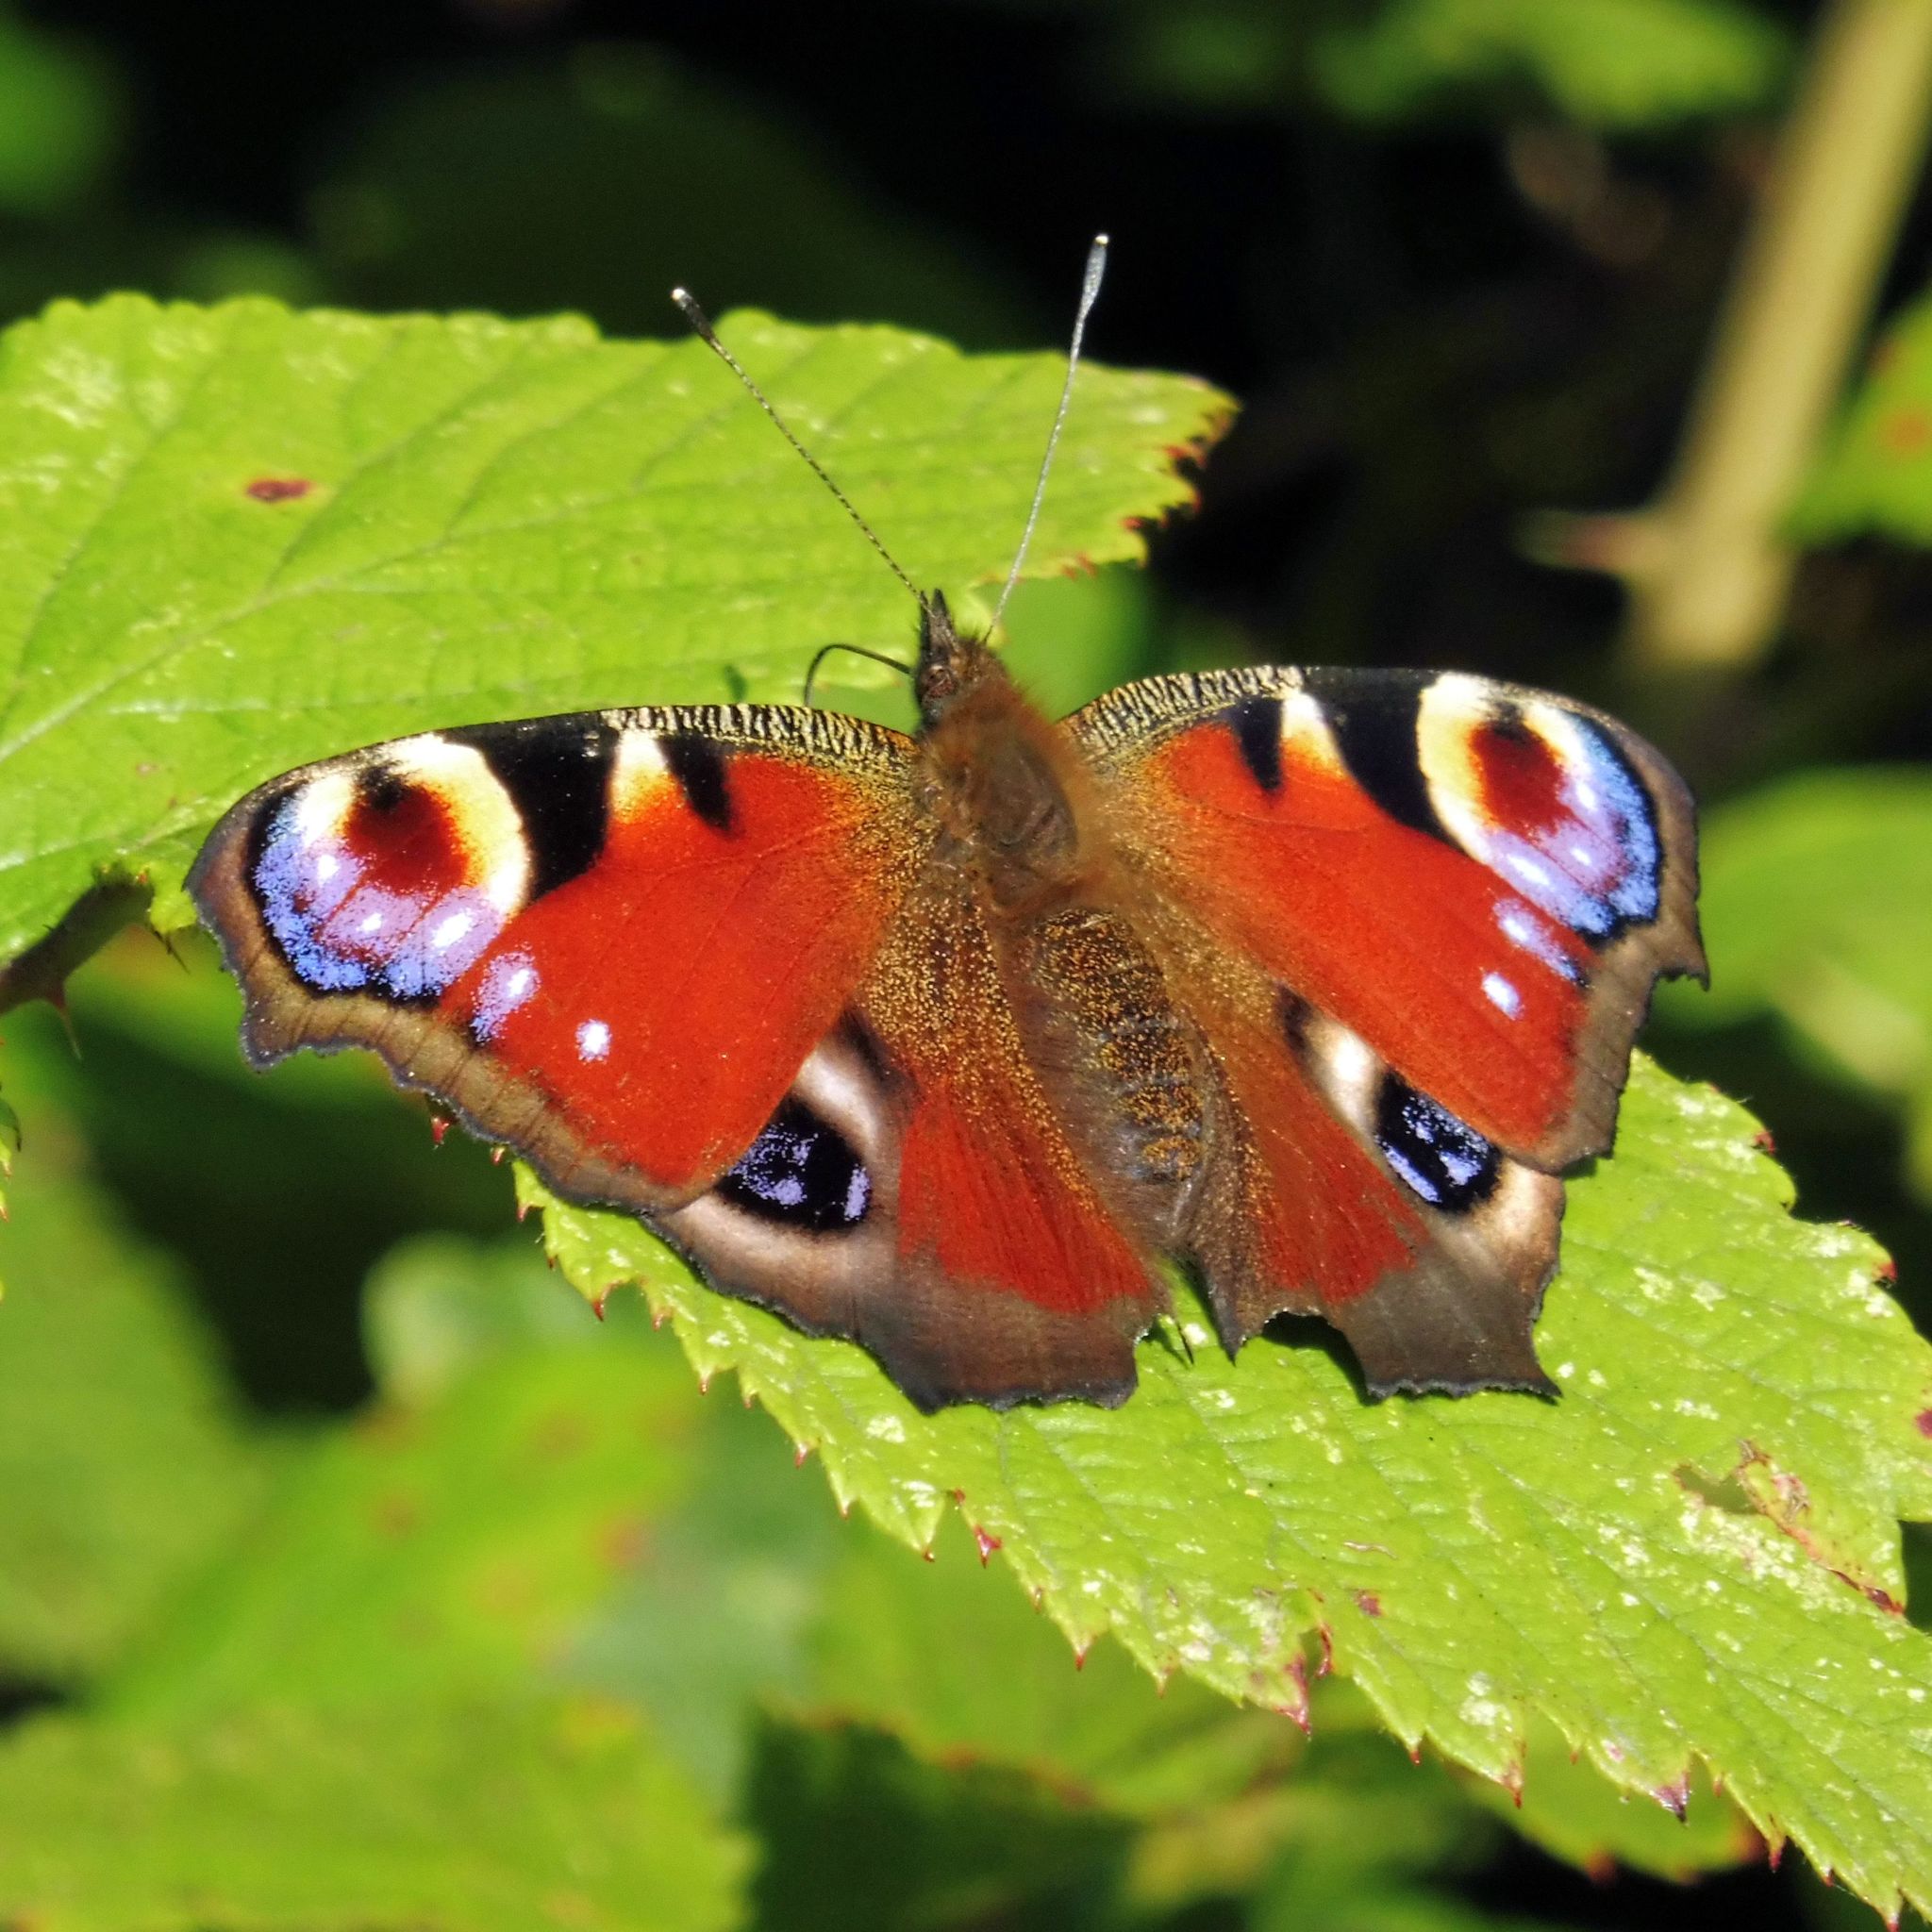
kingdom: Animalia
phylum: Arthropoda
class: Insecta
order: Lepidoptera
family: Nymphalidae
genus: Aglais
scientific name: Aglais io
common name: Peacock
